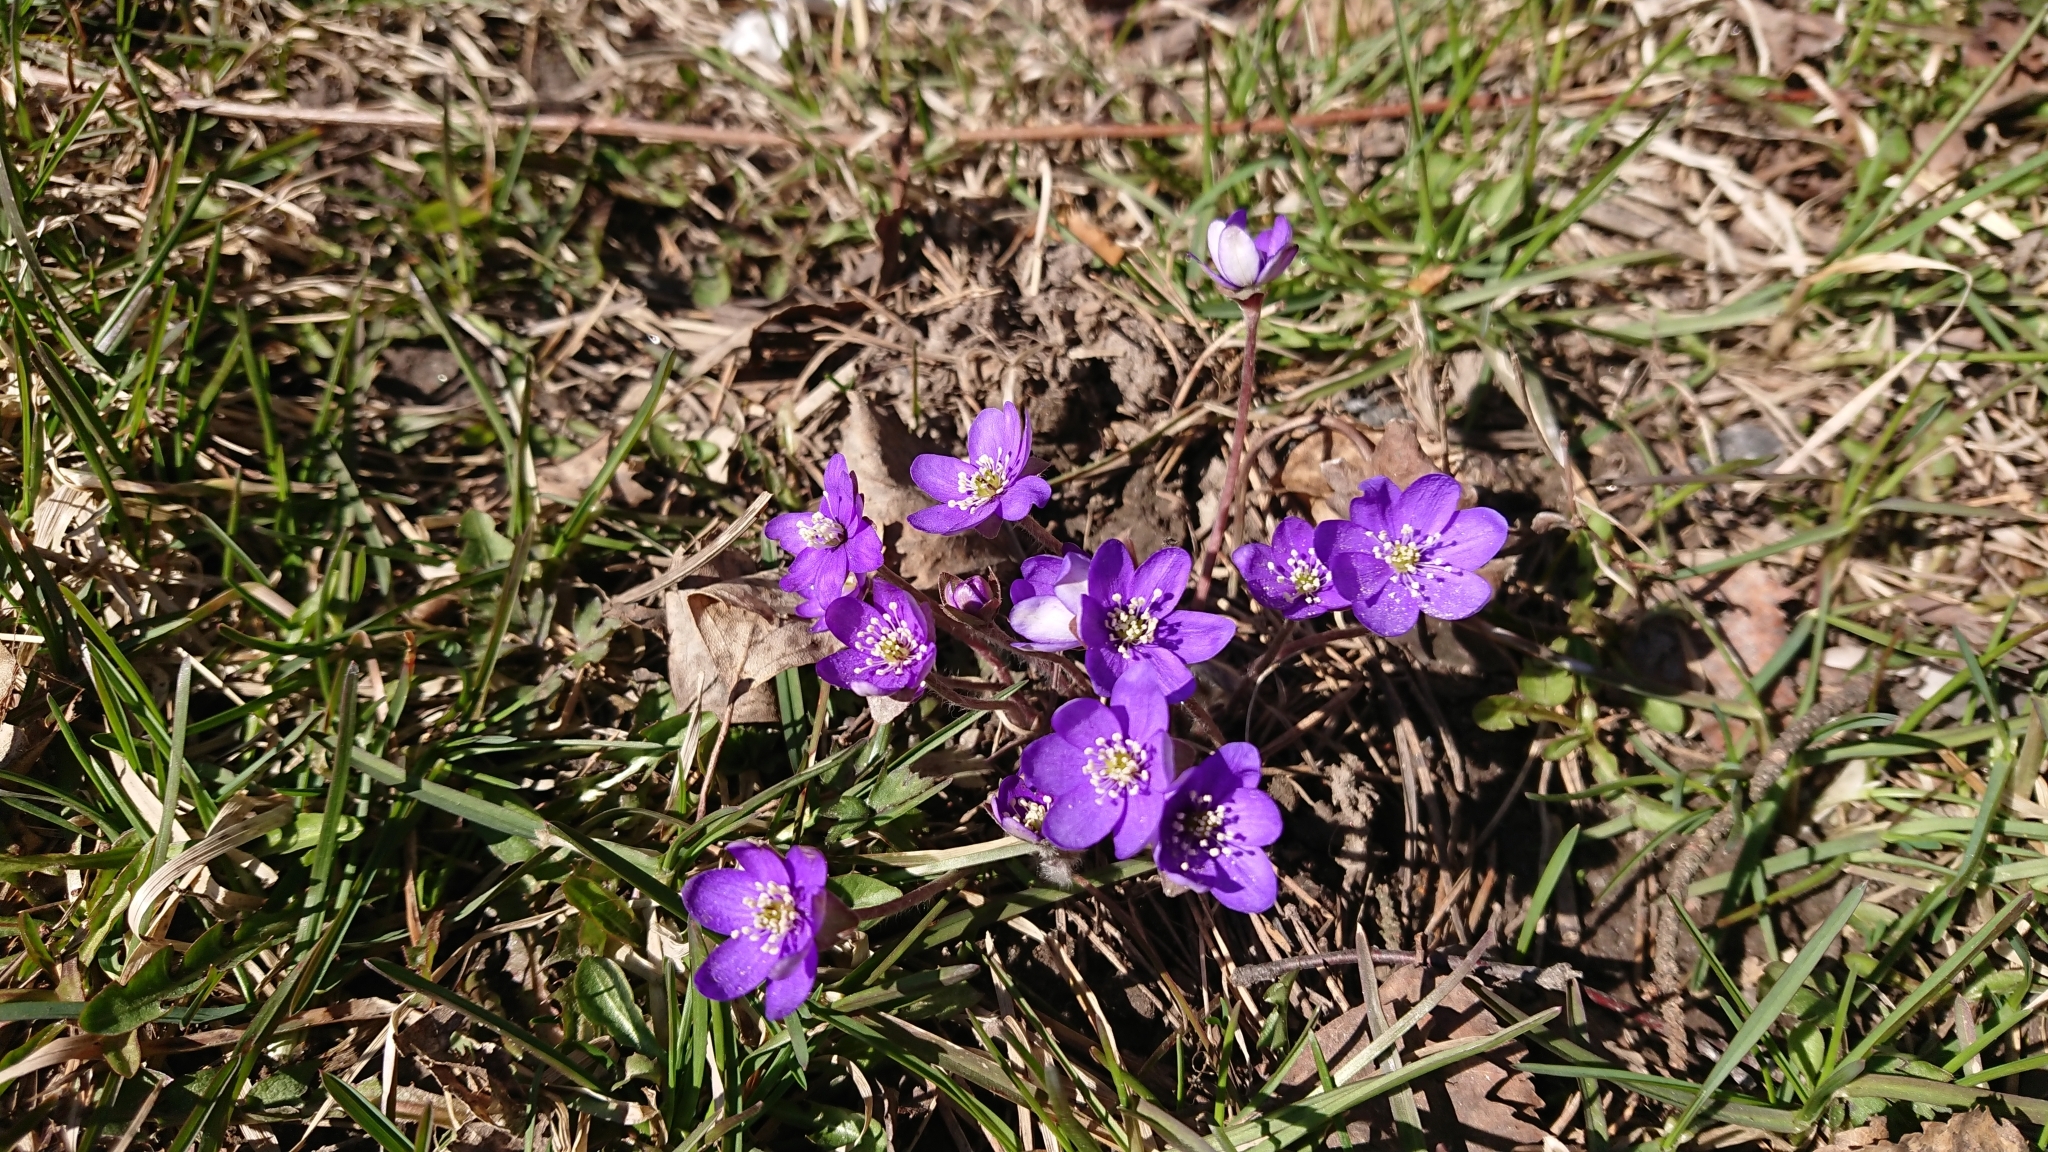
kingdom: Plantae
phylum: Tracheophyta
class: Magnoliopsida
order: Ranunculales
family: Ranunculaceae
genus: Hepatica
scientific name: Hepatica nobilis
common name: Liverleaf
